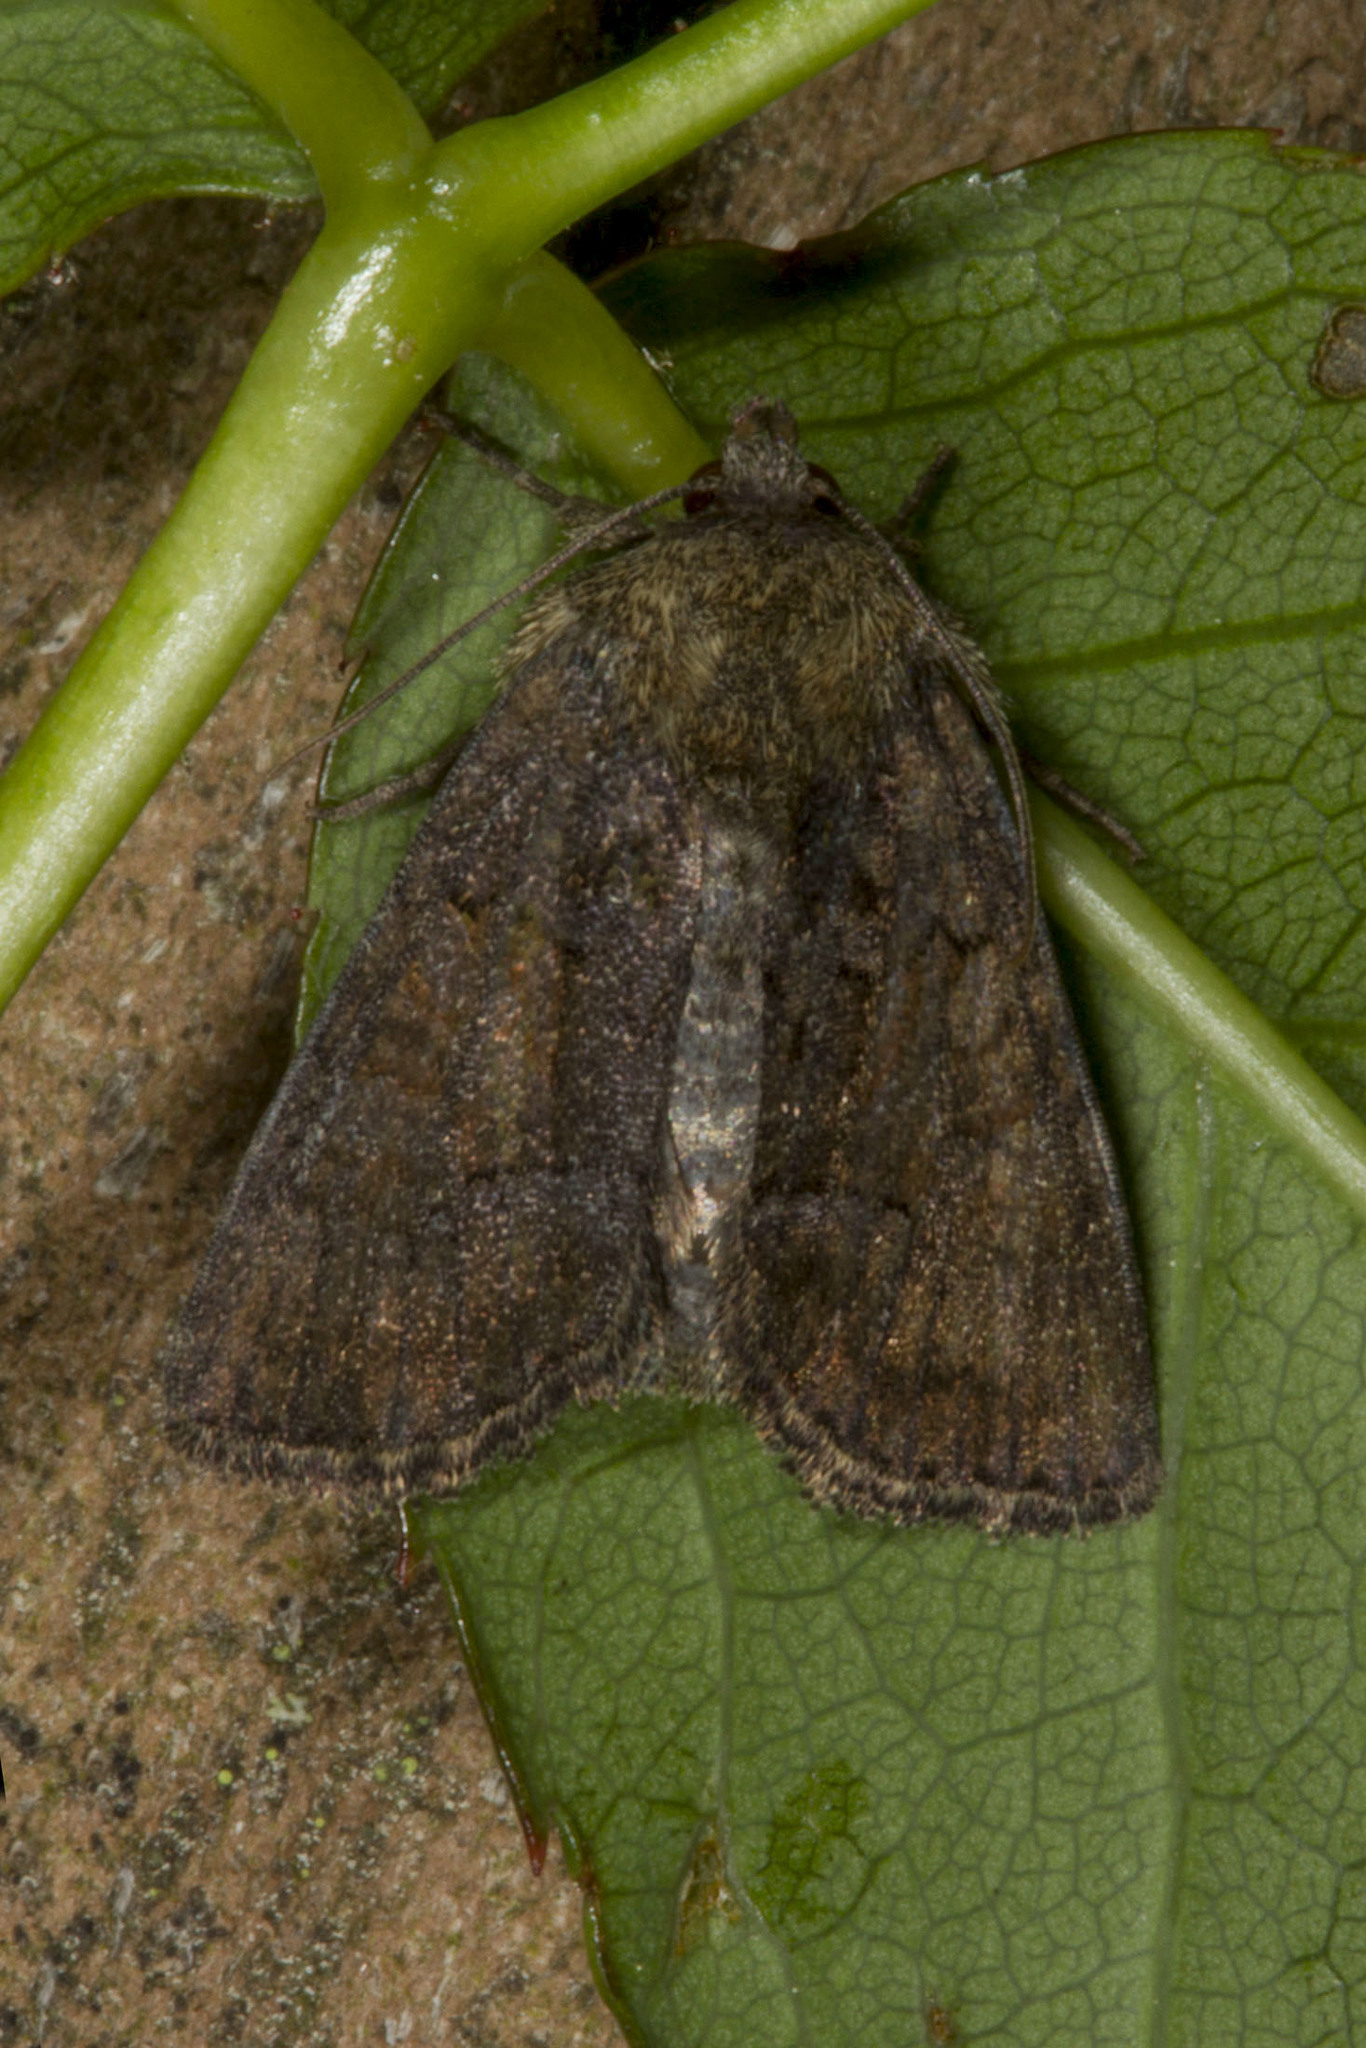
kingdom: Animalia
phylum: Arthropoda
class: Insecta
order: Lepidoptera
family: Noctuidae
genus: Oligia
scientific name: Oligia latruncula
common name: Tawny marbled minor
